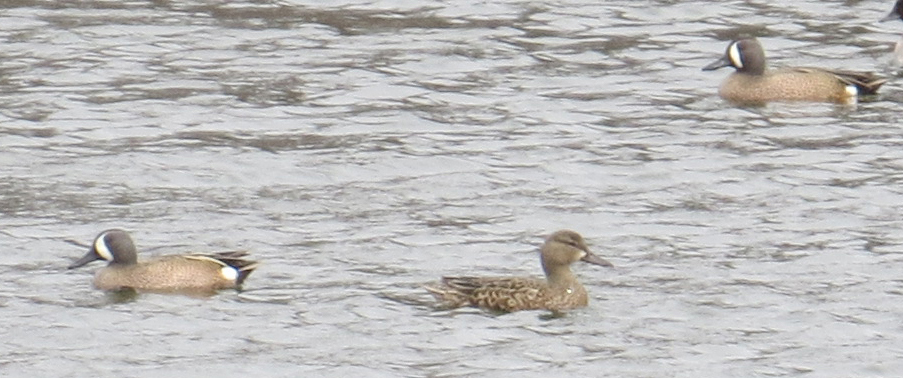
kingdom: Animalia
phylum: Chordata
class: Aves
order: Anseriformes
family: Anatidae
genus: Spatula
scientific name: Spatula discors
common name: Blue-winged teal
